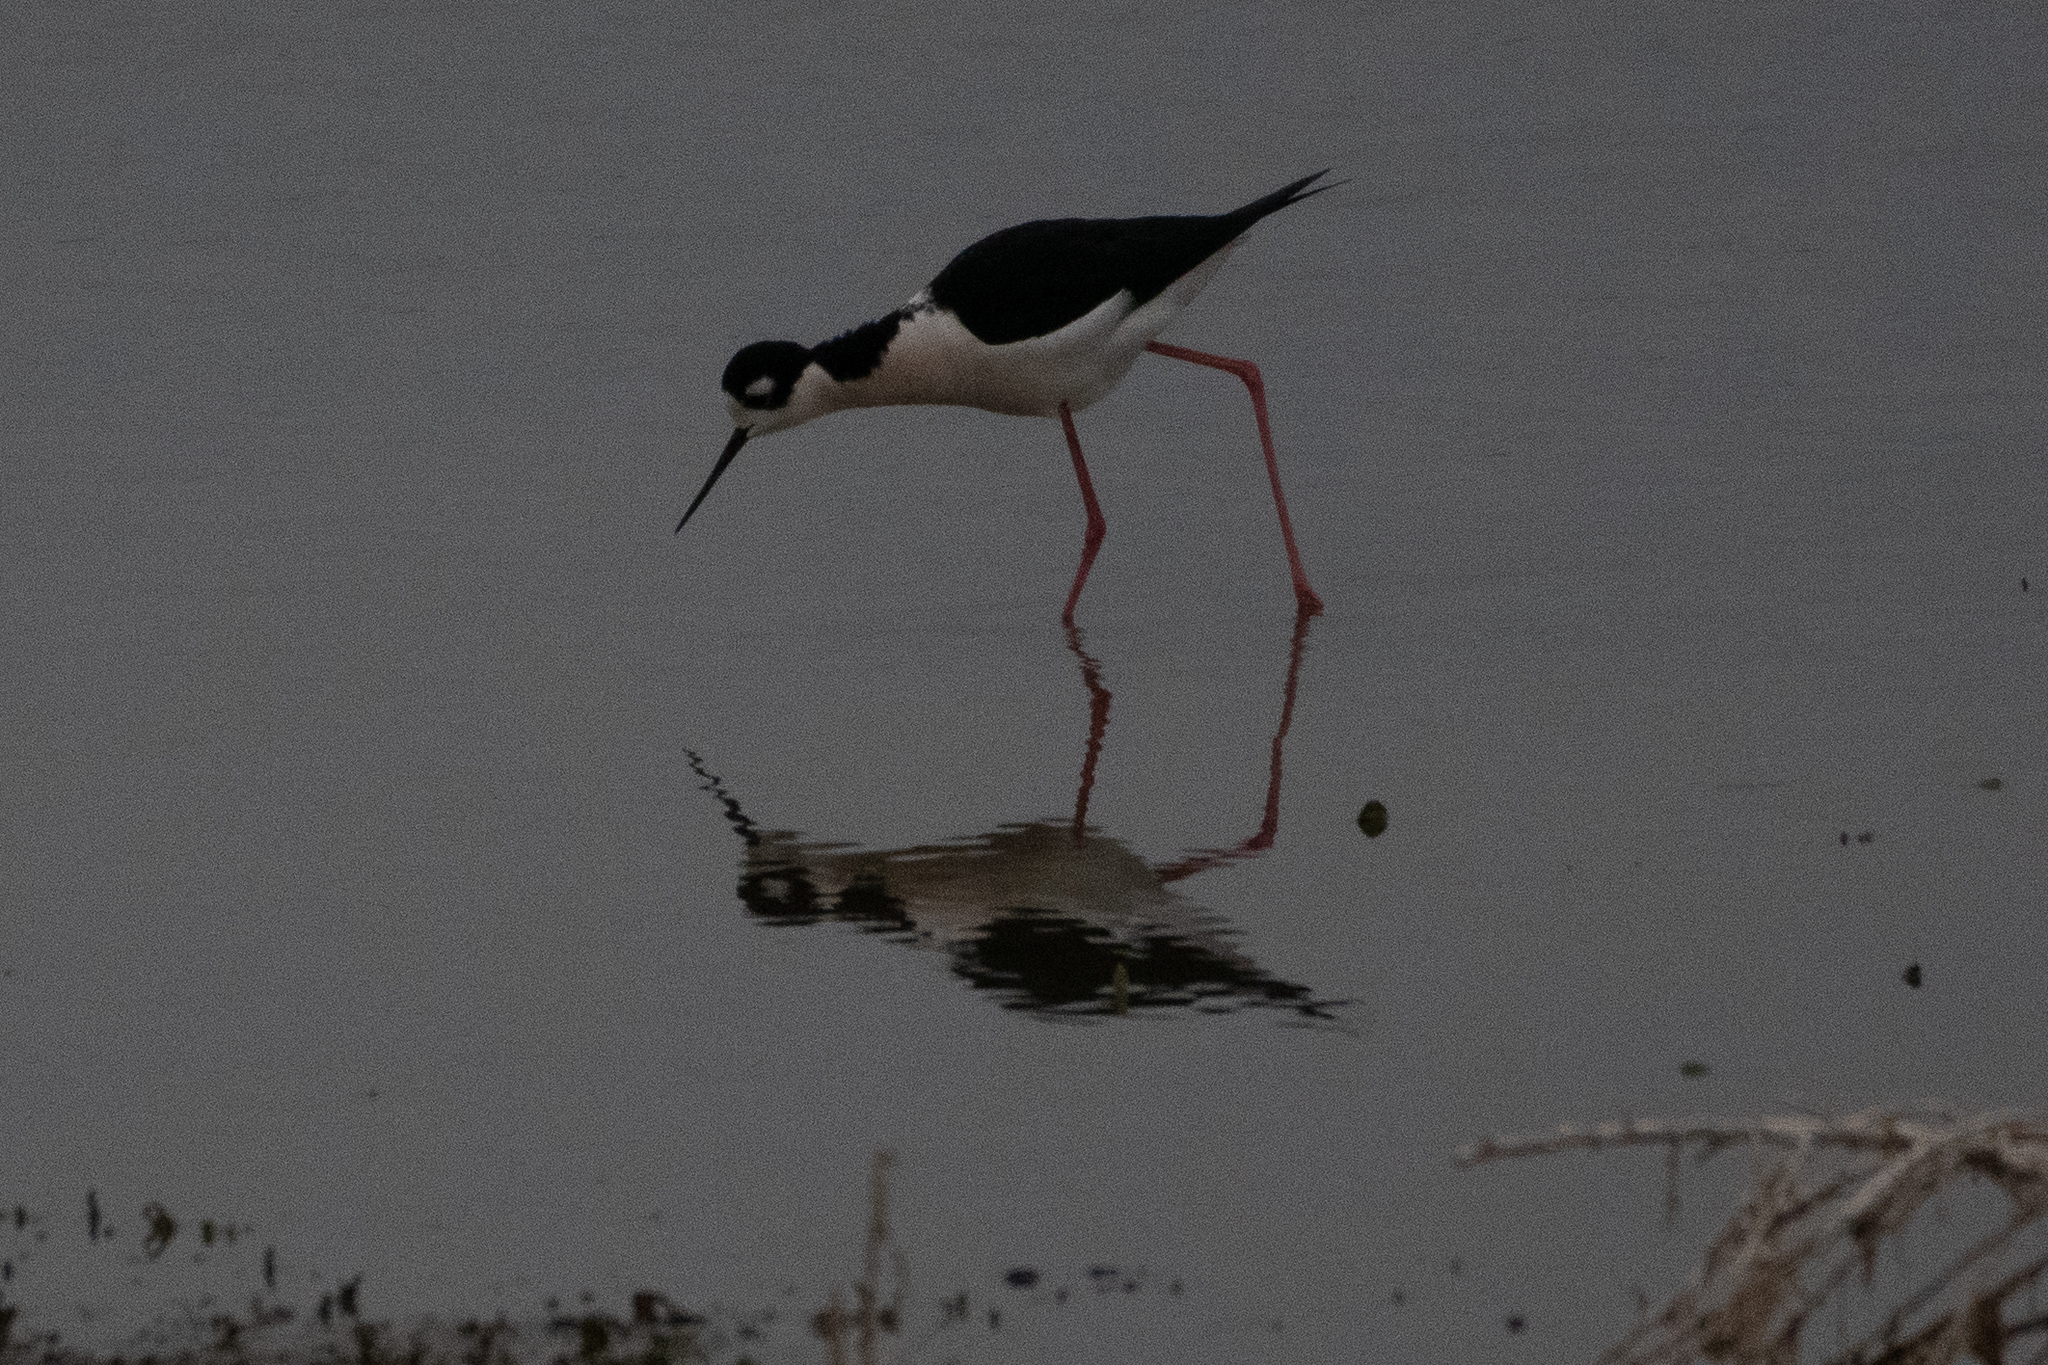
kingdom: Animalia
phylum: Chordata
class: Aves
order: Charadriiformes
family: Recurvirostridae
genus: Himantopus
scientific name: Himantopus mexicanus
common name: Black-necked stilt
